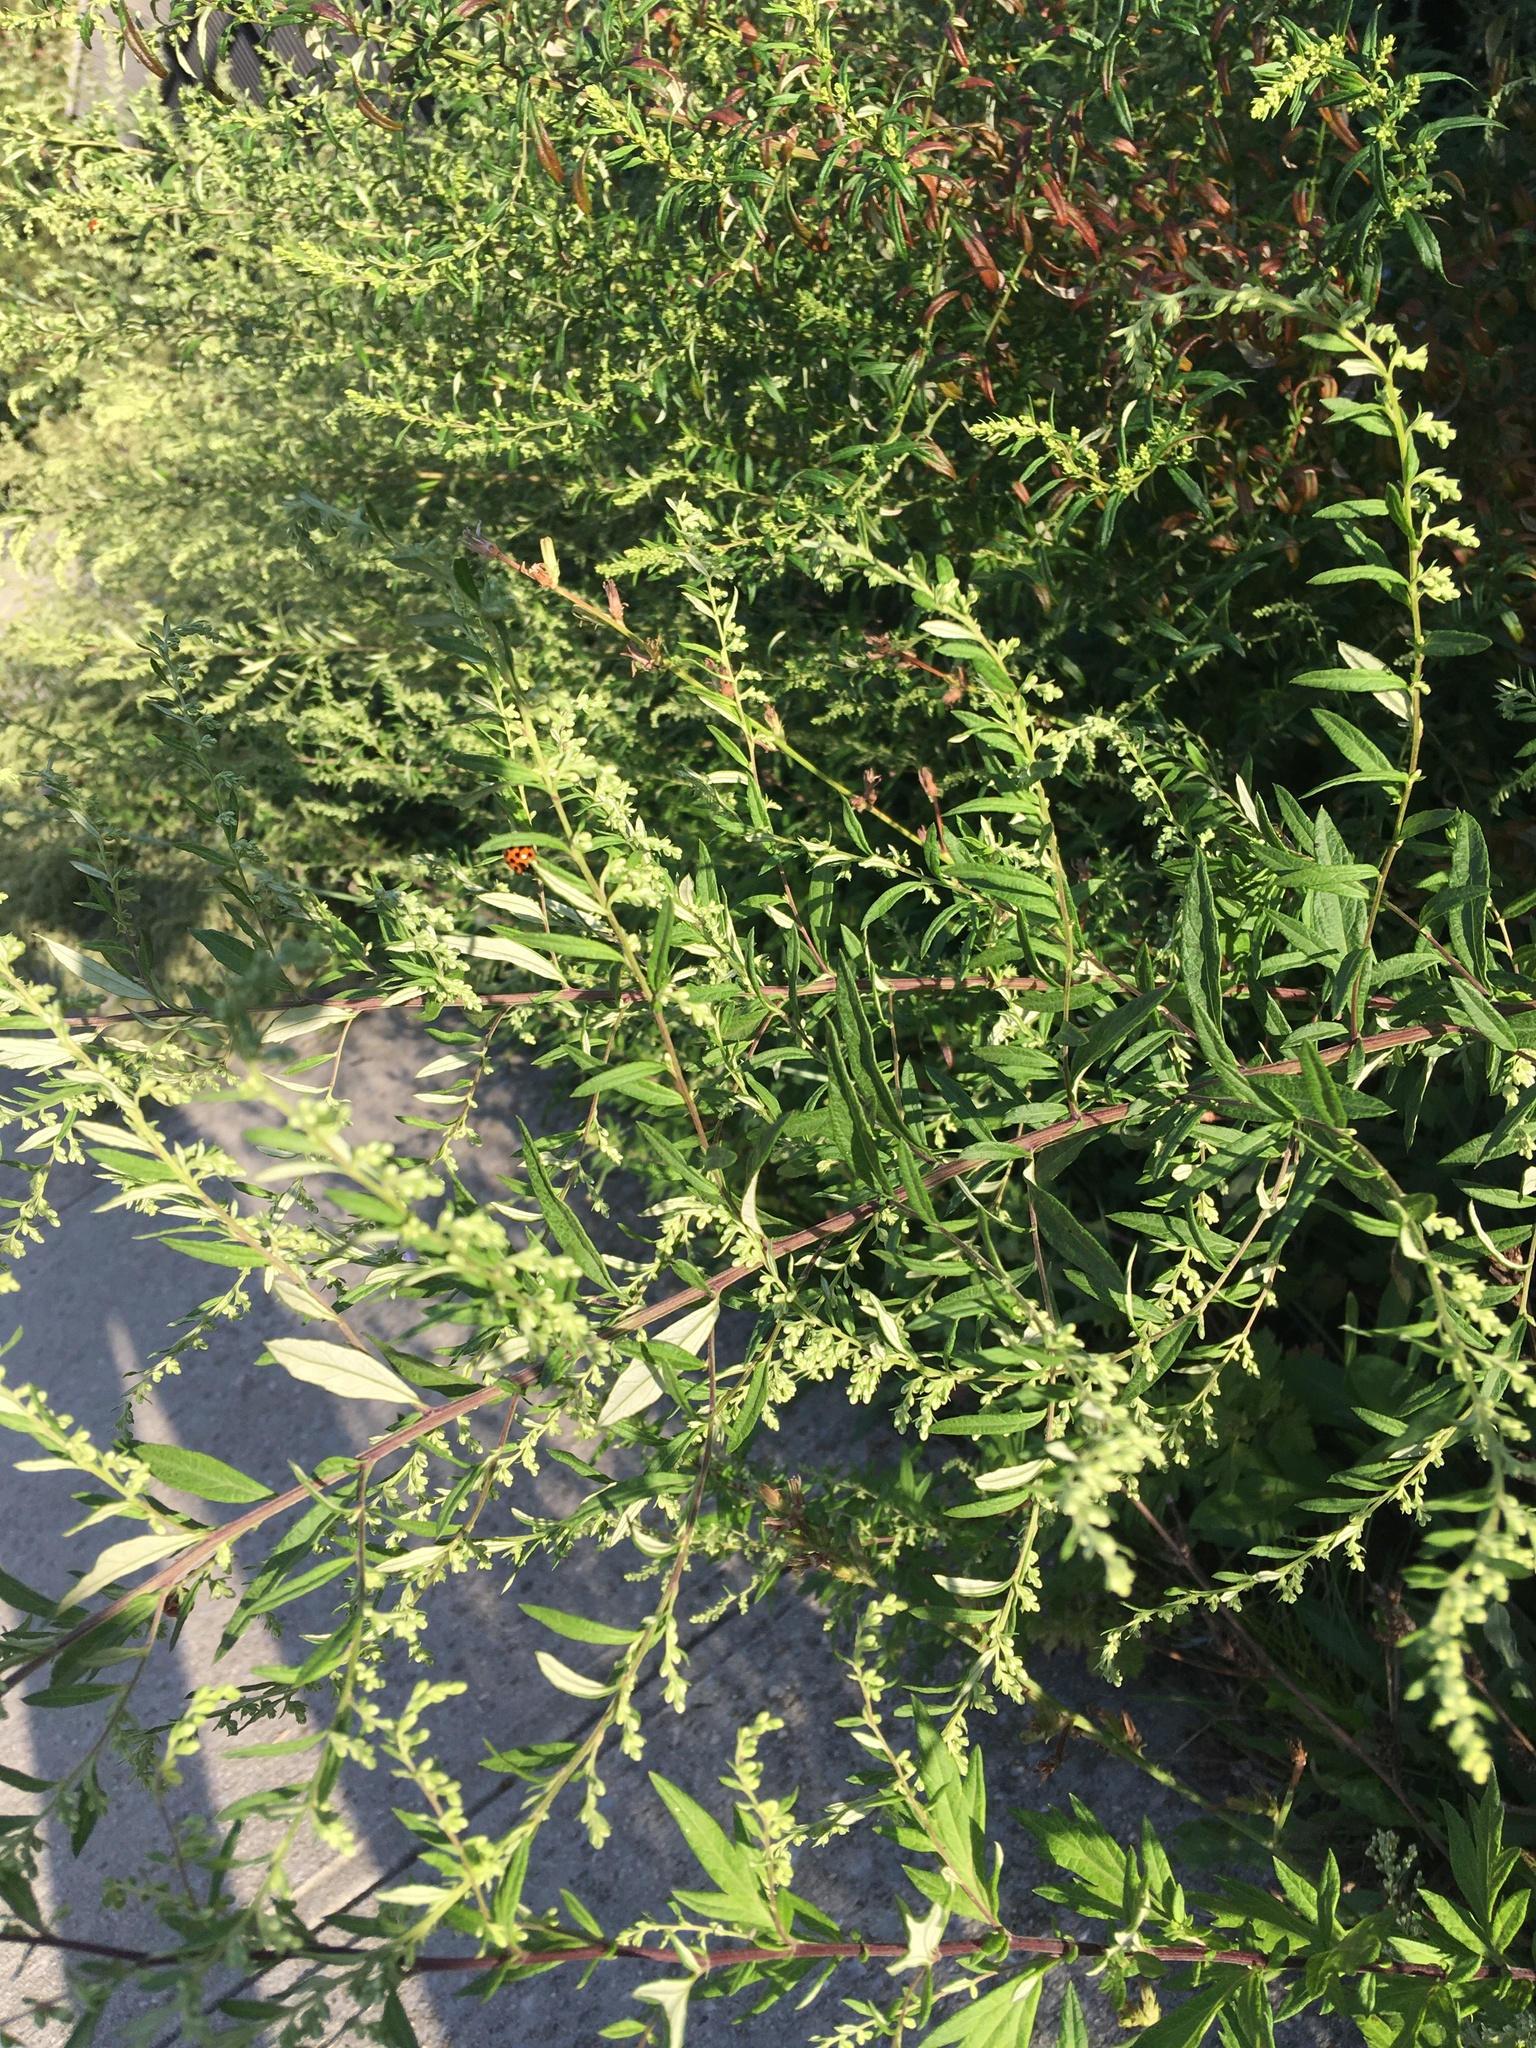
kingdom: Plantae
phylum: Tracheophyta
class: Magnoliopsida
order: Asterales
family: Asteraceae
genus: Artemisia
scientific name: Artemisia vulgaris
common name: Mugwort
